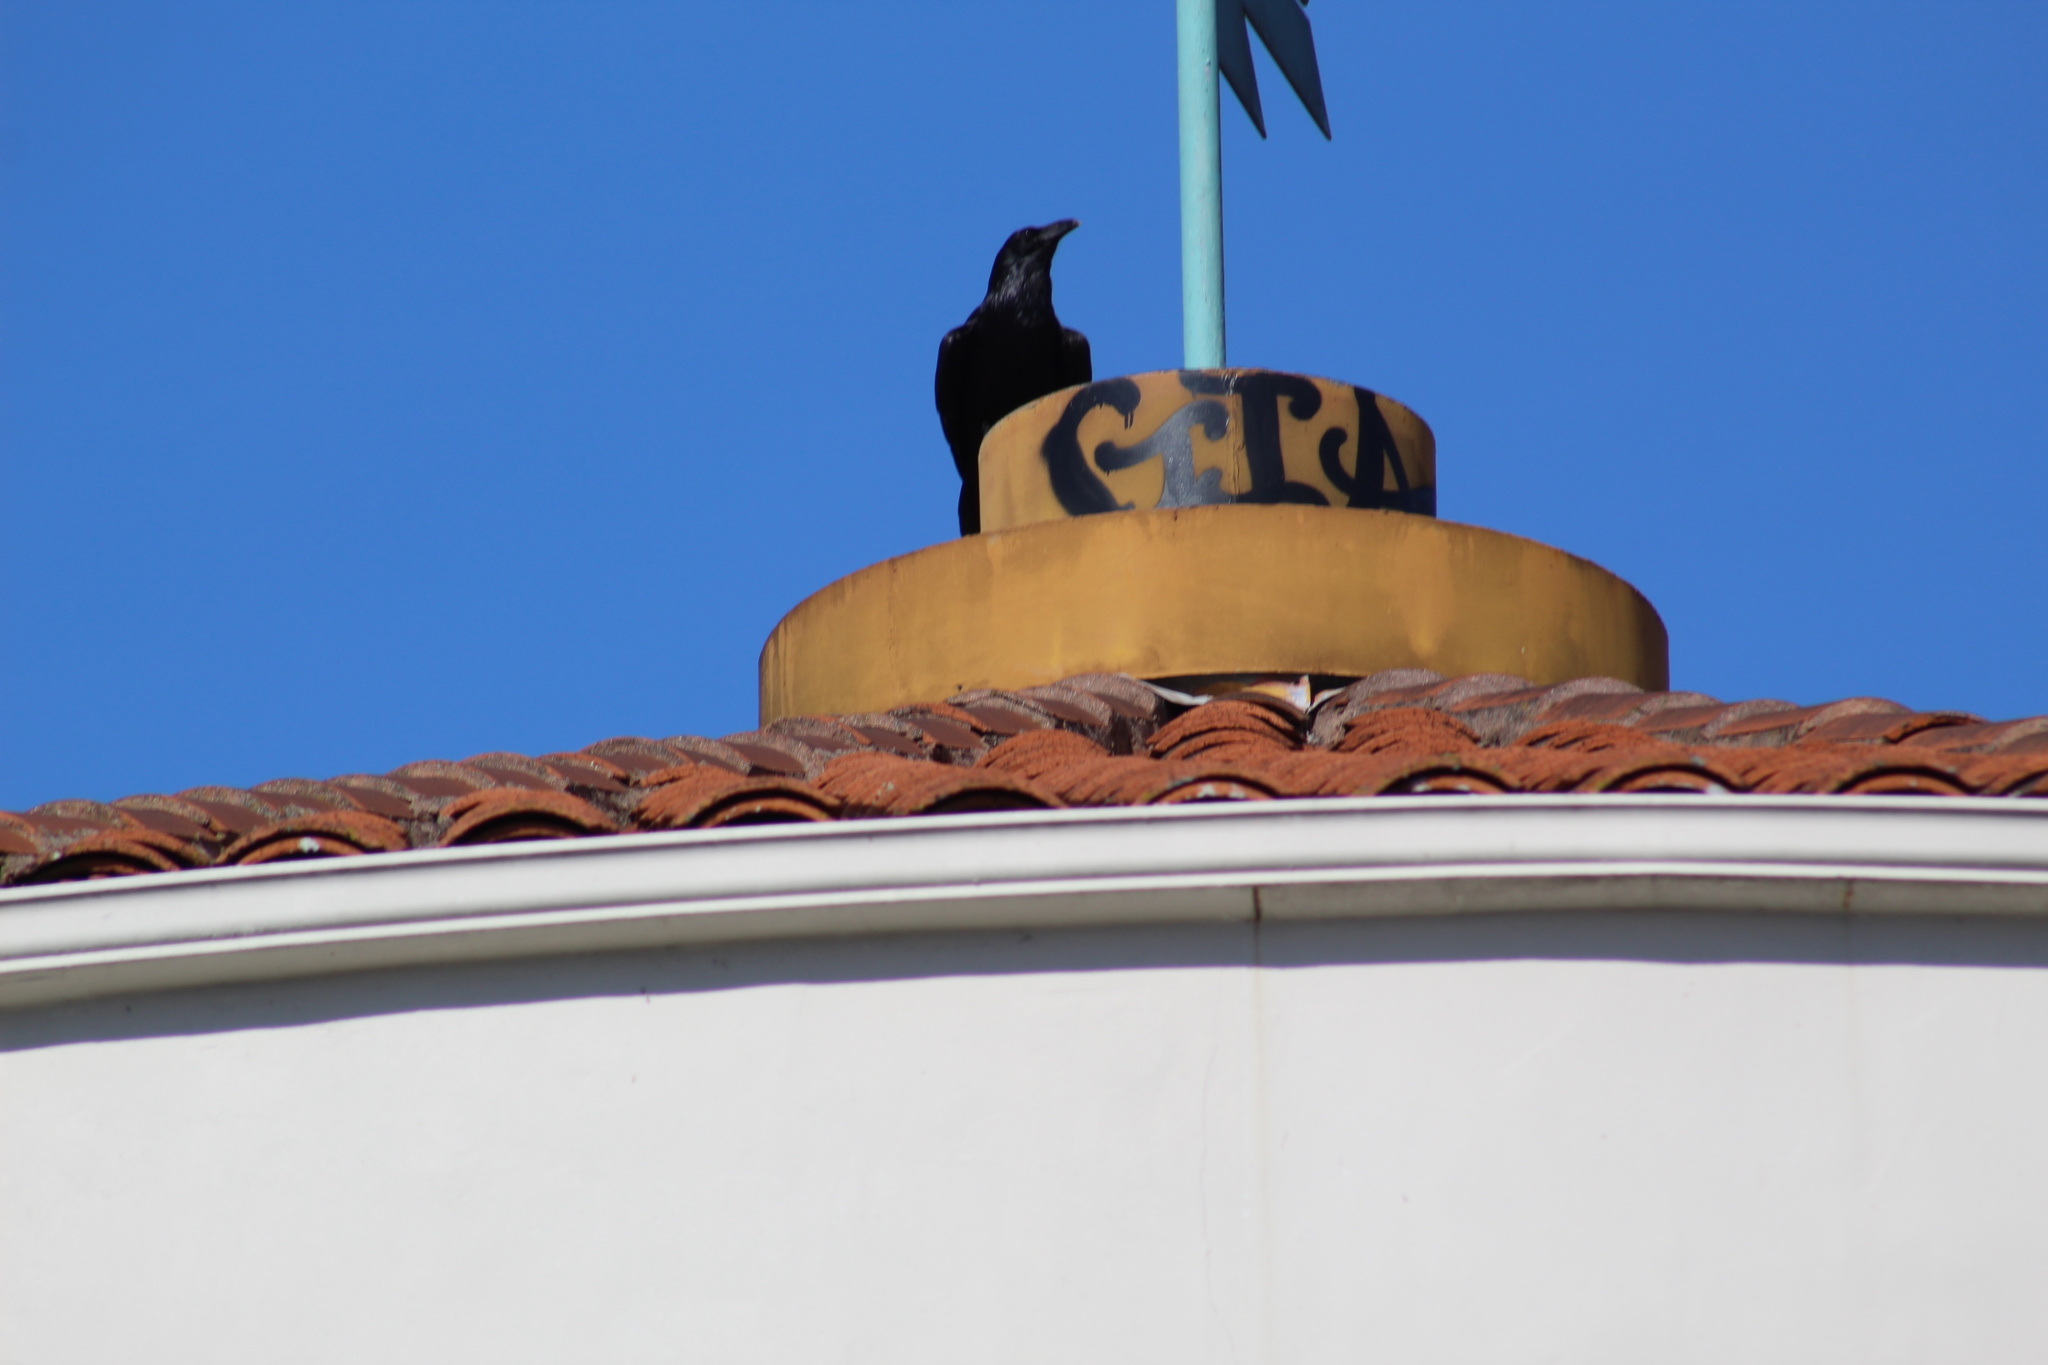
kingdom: Animalia
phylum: Chordata
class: Aves
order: Passeriformes
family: Corvidae
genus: Corvus
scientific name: Corvus corax
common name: Common raven
